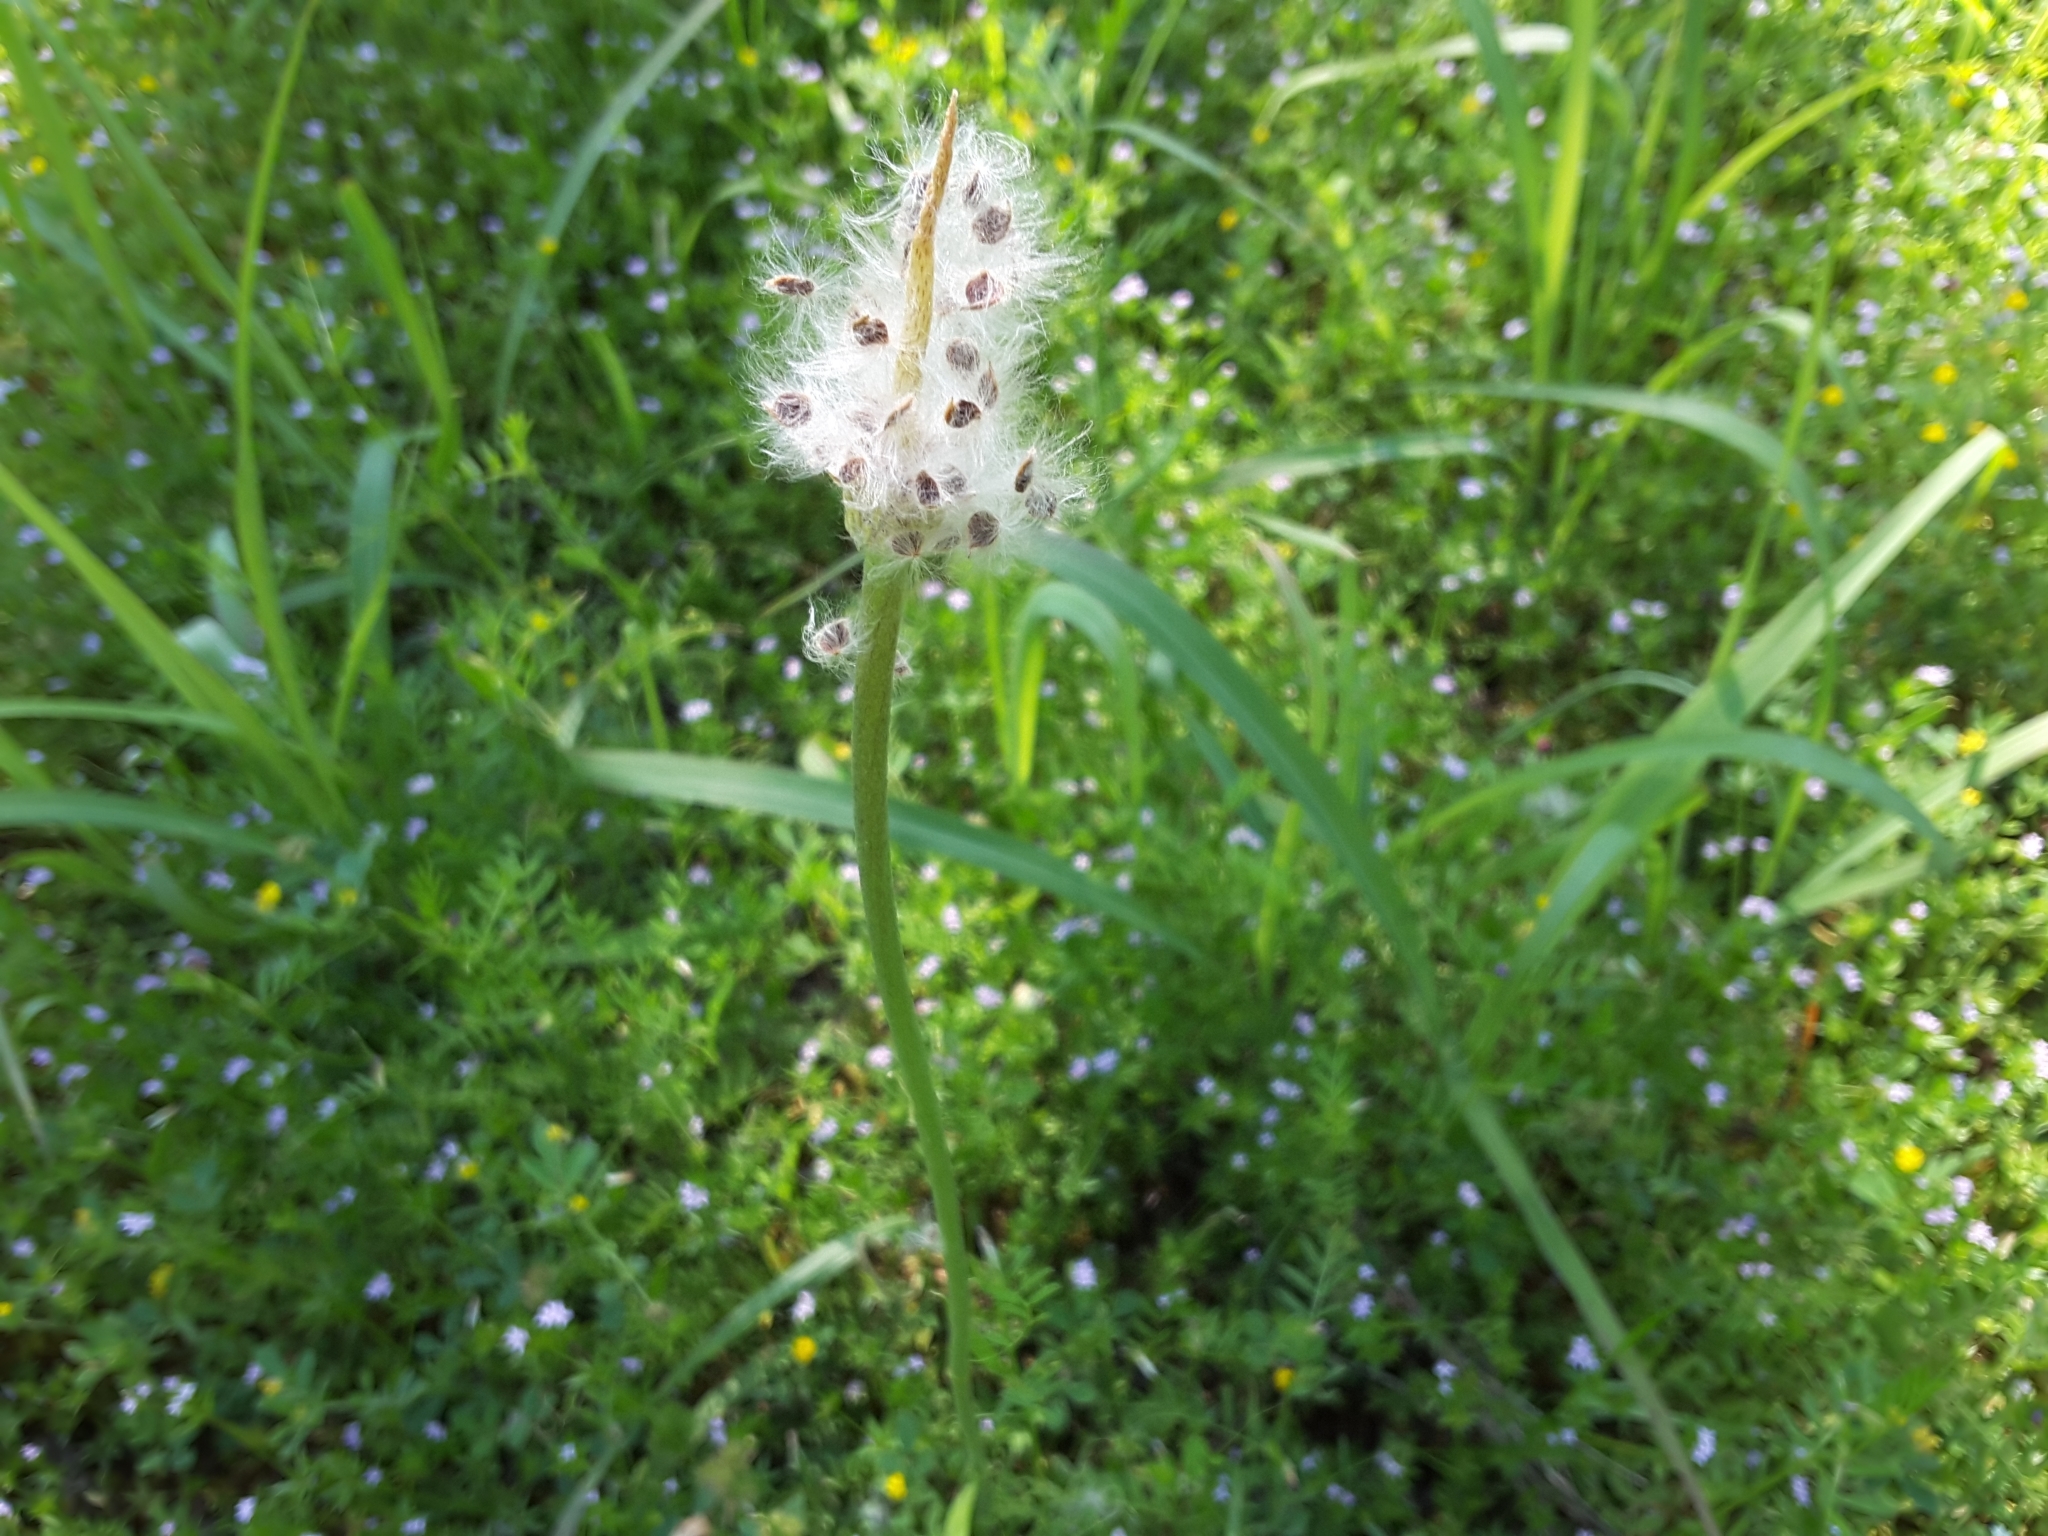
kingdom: Plantae
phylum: Tracheophyta
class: Magnoliopsida
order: Ranunculales
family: Ranunculaceae
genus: Anemone
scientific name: Anemone berlandieri
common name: Ten-petal anemone
